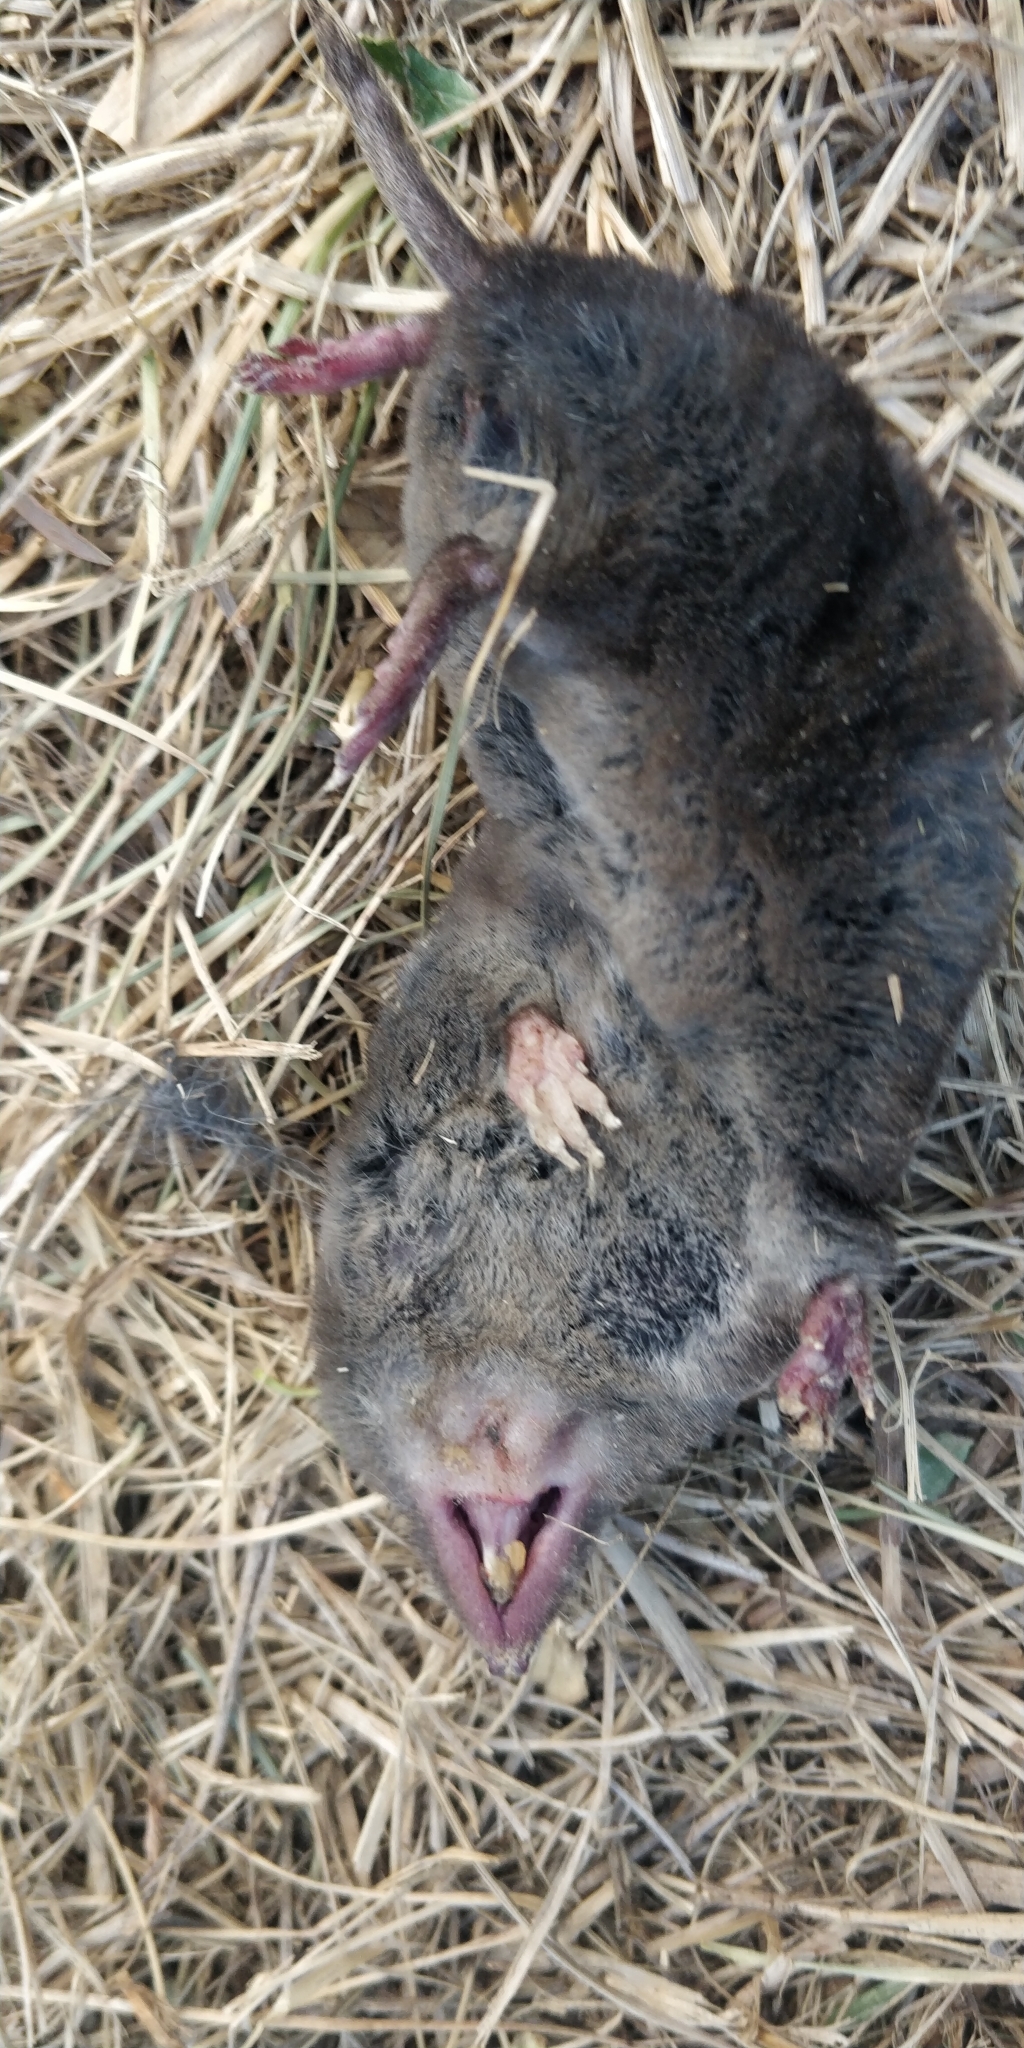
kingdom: Animalia
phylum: Chordata
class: Mammalia
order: Soricomorpha
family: Soricidae
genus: Blarina
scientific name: Blarina brevicauda
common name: Northern short-tailed shrew
